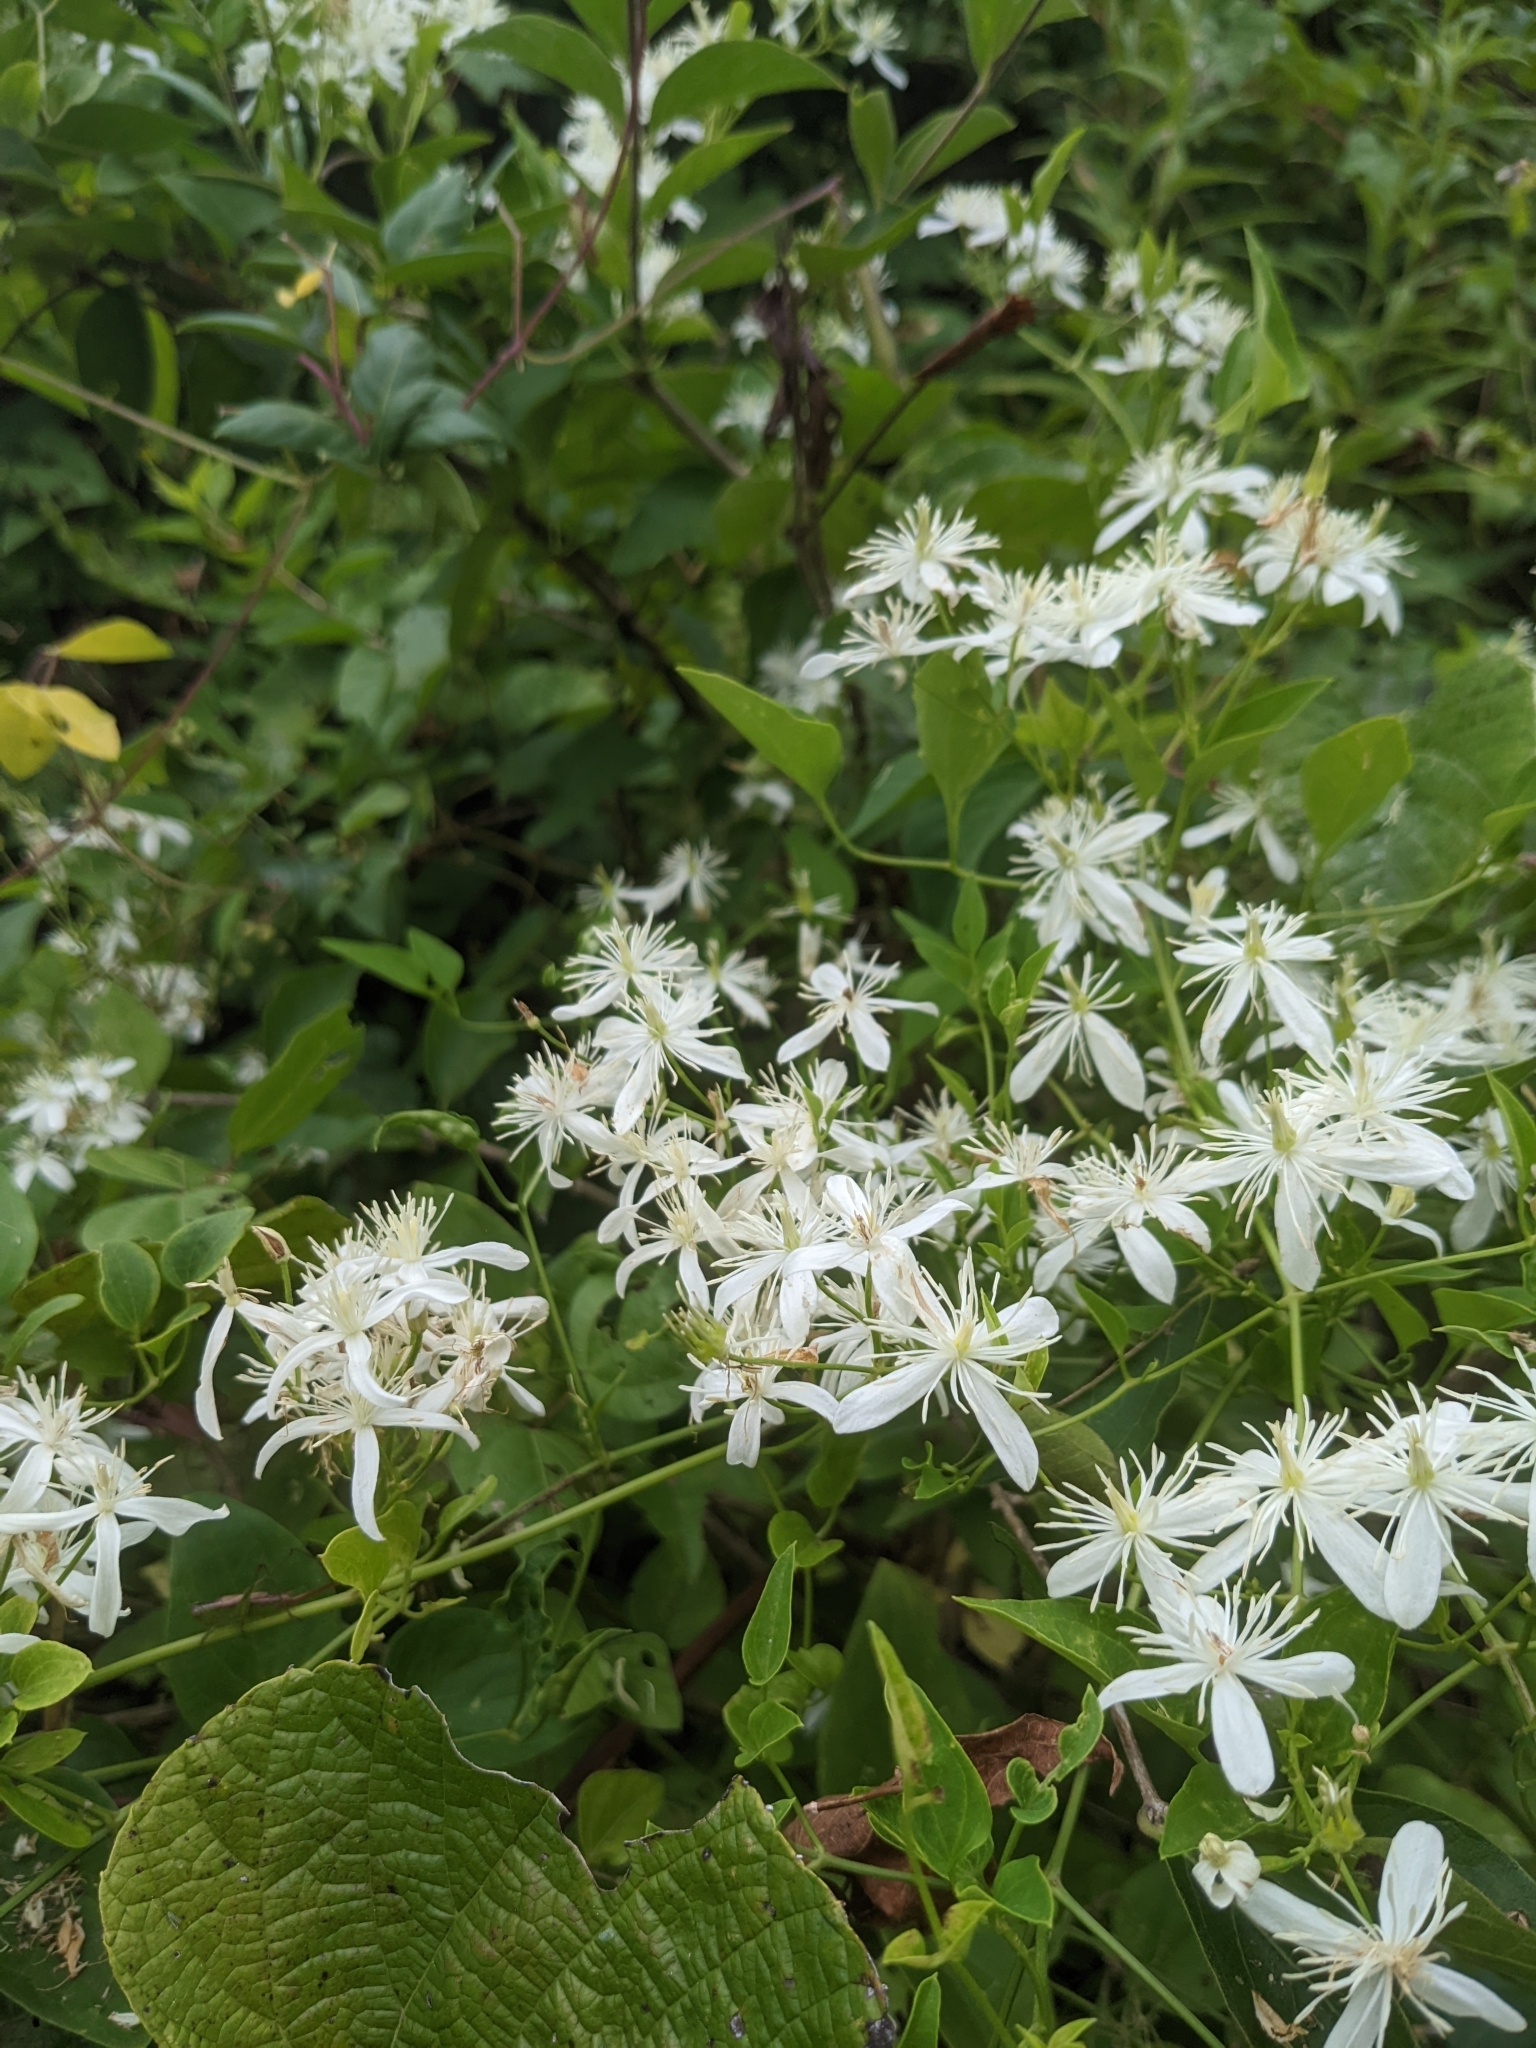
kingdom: Plantae
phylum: Tracheophyta
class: Magnoliopsida
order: Ranunculales
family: Ranunculaceae
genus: Clematis
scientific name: Clematis terniflora
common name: Sweet autumn clematis
